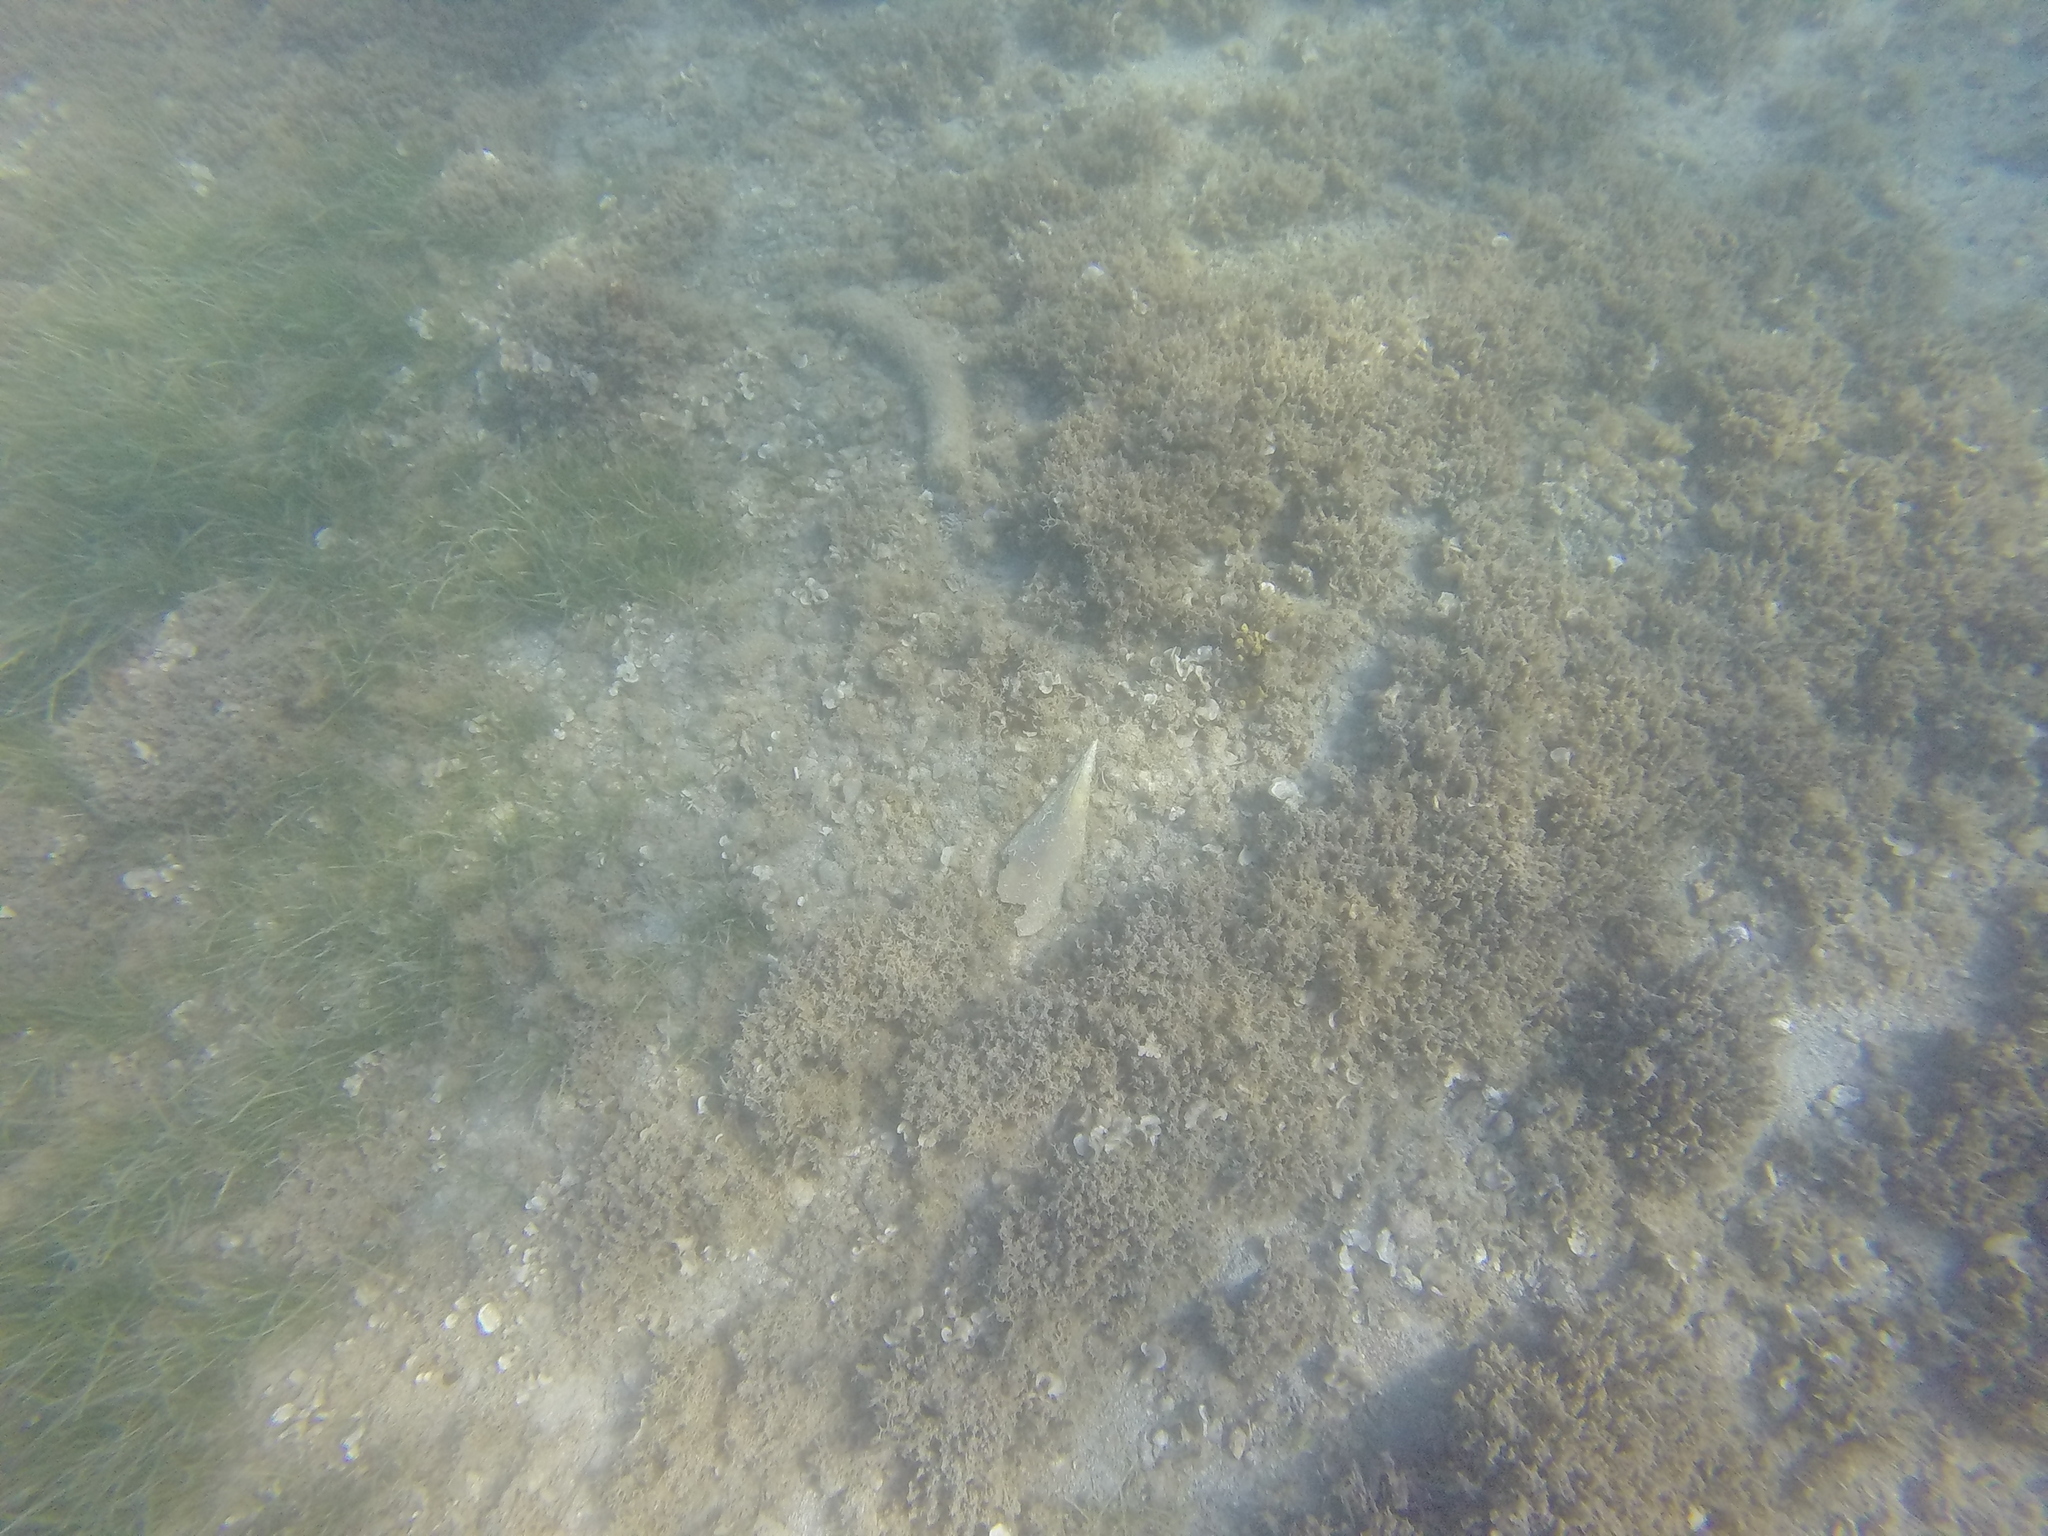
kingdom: Animalia
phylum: Mollusca
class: Bivalvia
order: Ostreida
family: Pinnidae
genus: Pinna
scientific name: Pinna nobilis
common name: Fan mussel
